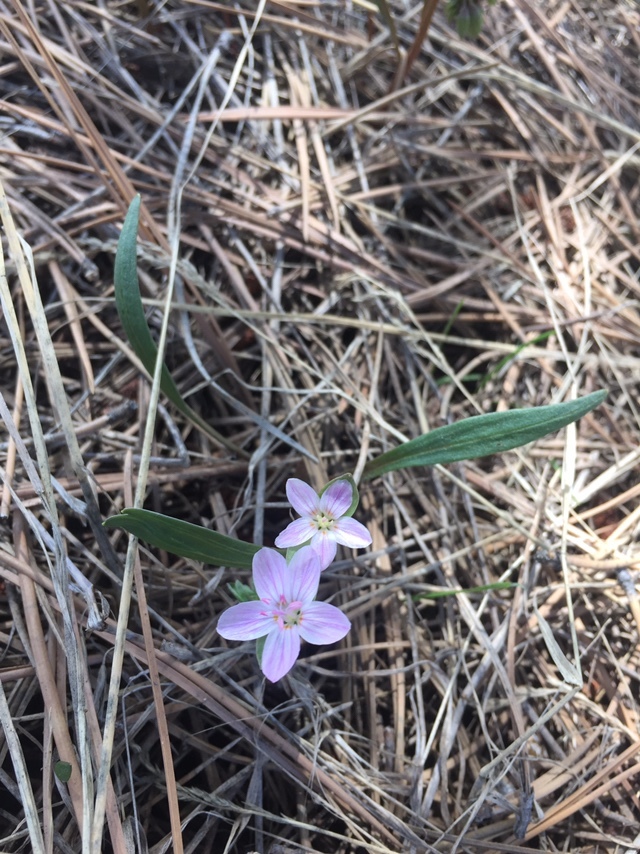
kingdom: Plantae
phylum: Tracheophyta
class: Magnoliopsida
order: Caryophyllales
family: Montiaceae
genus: Claytonia
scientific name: Claytonia rosea
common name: Rocky mountain spring-beauty
